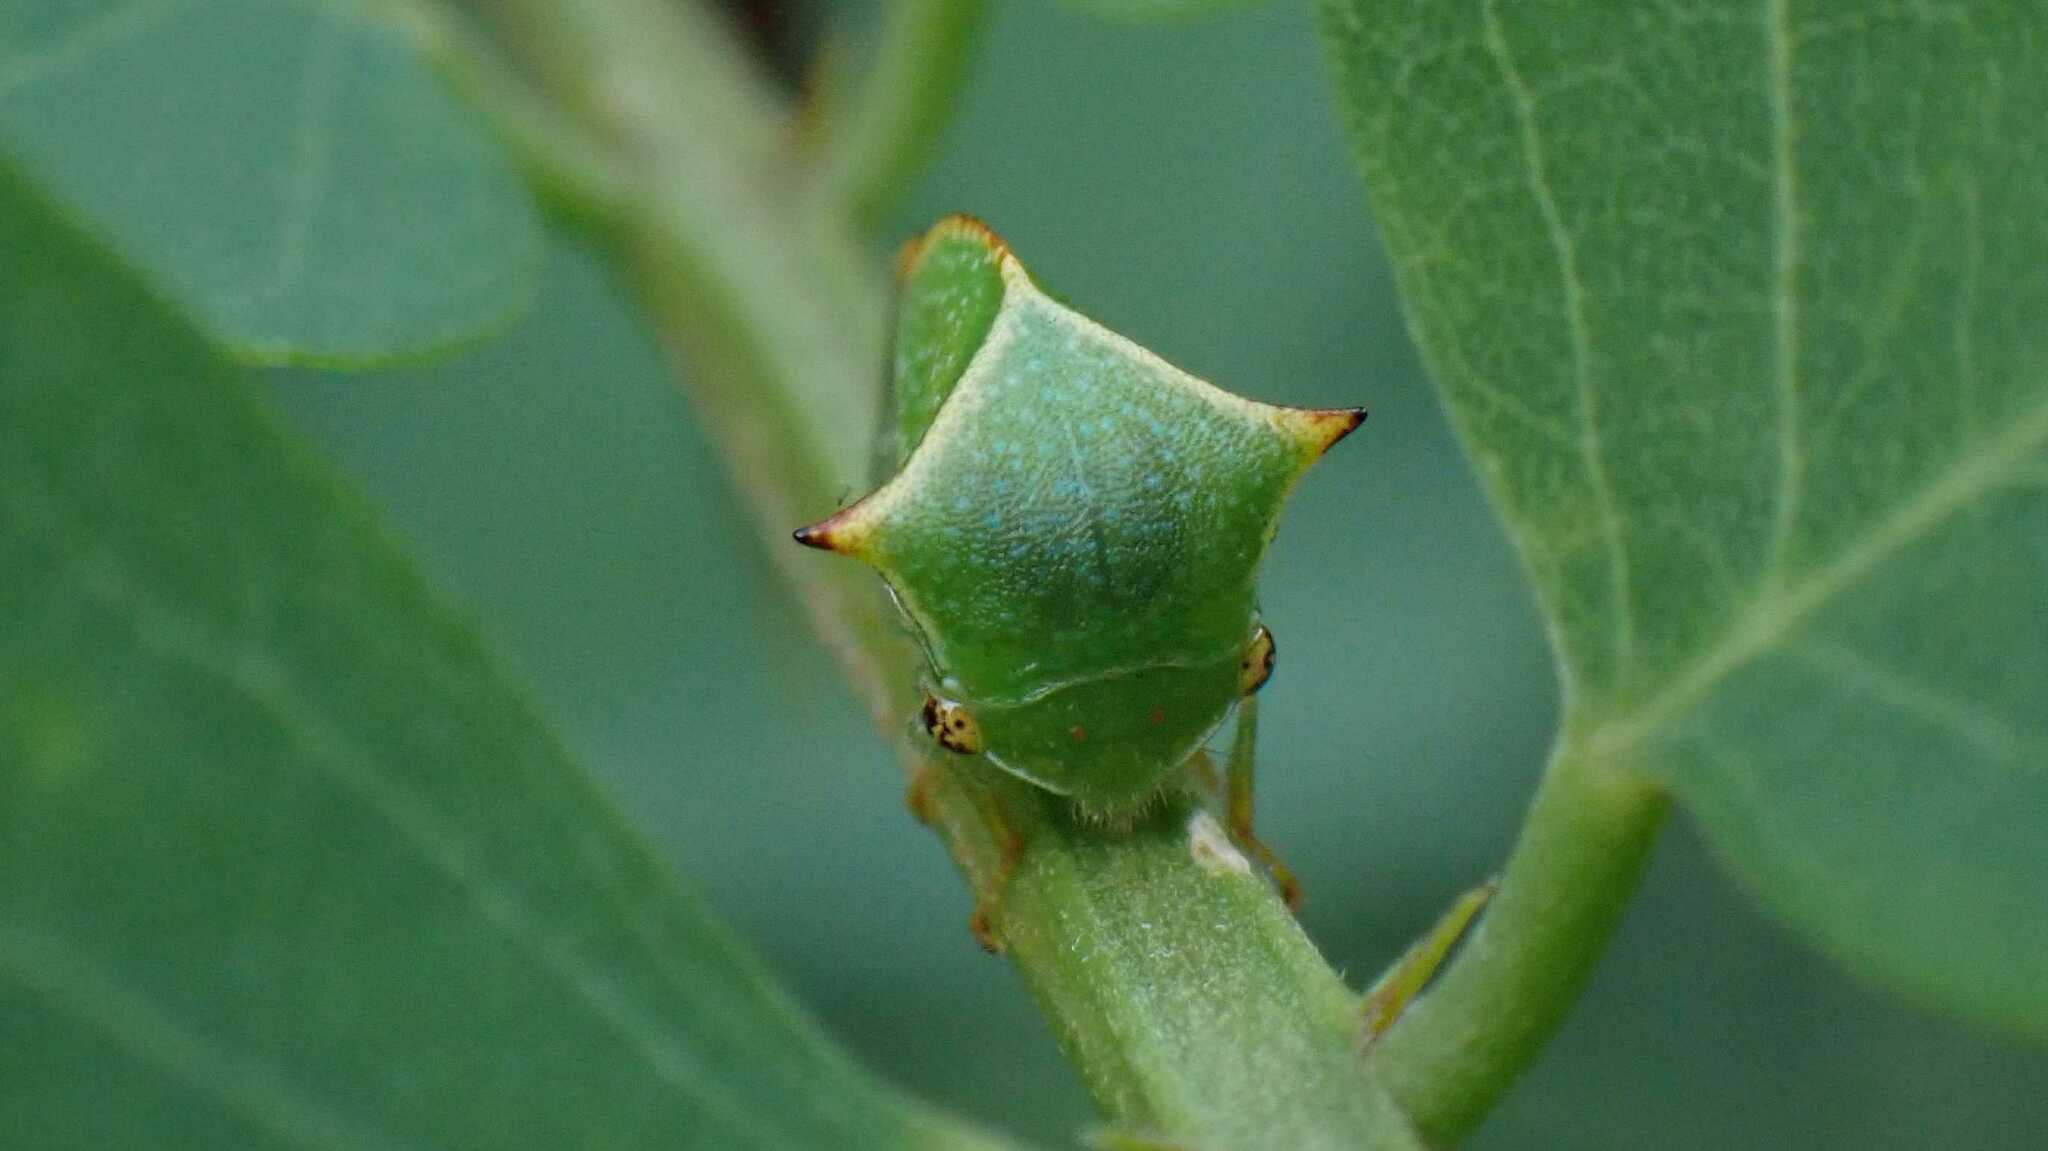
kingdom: Animalia
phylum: Arthropoda
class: Insecta
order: Hemiptera
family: Membracidae
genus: Stictocephala
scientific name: Stictocephala bisonia
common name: American buffalo treehopper
